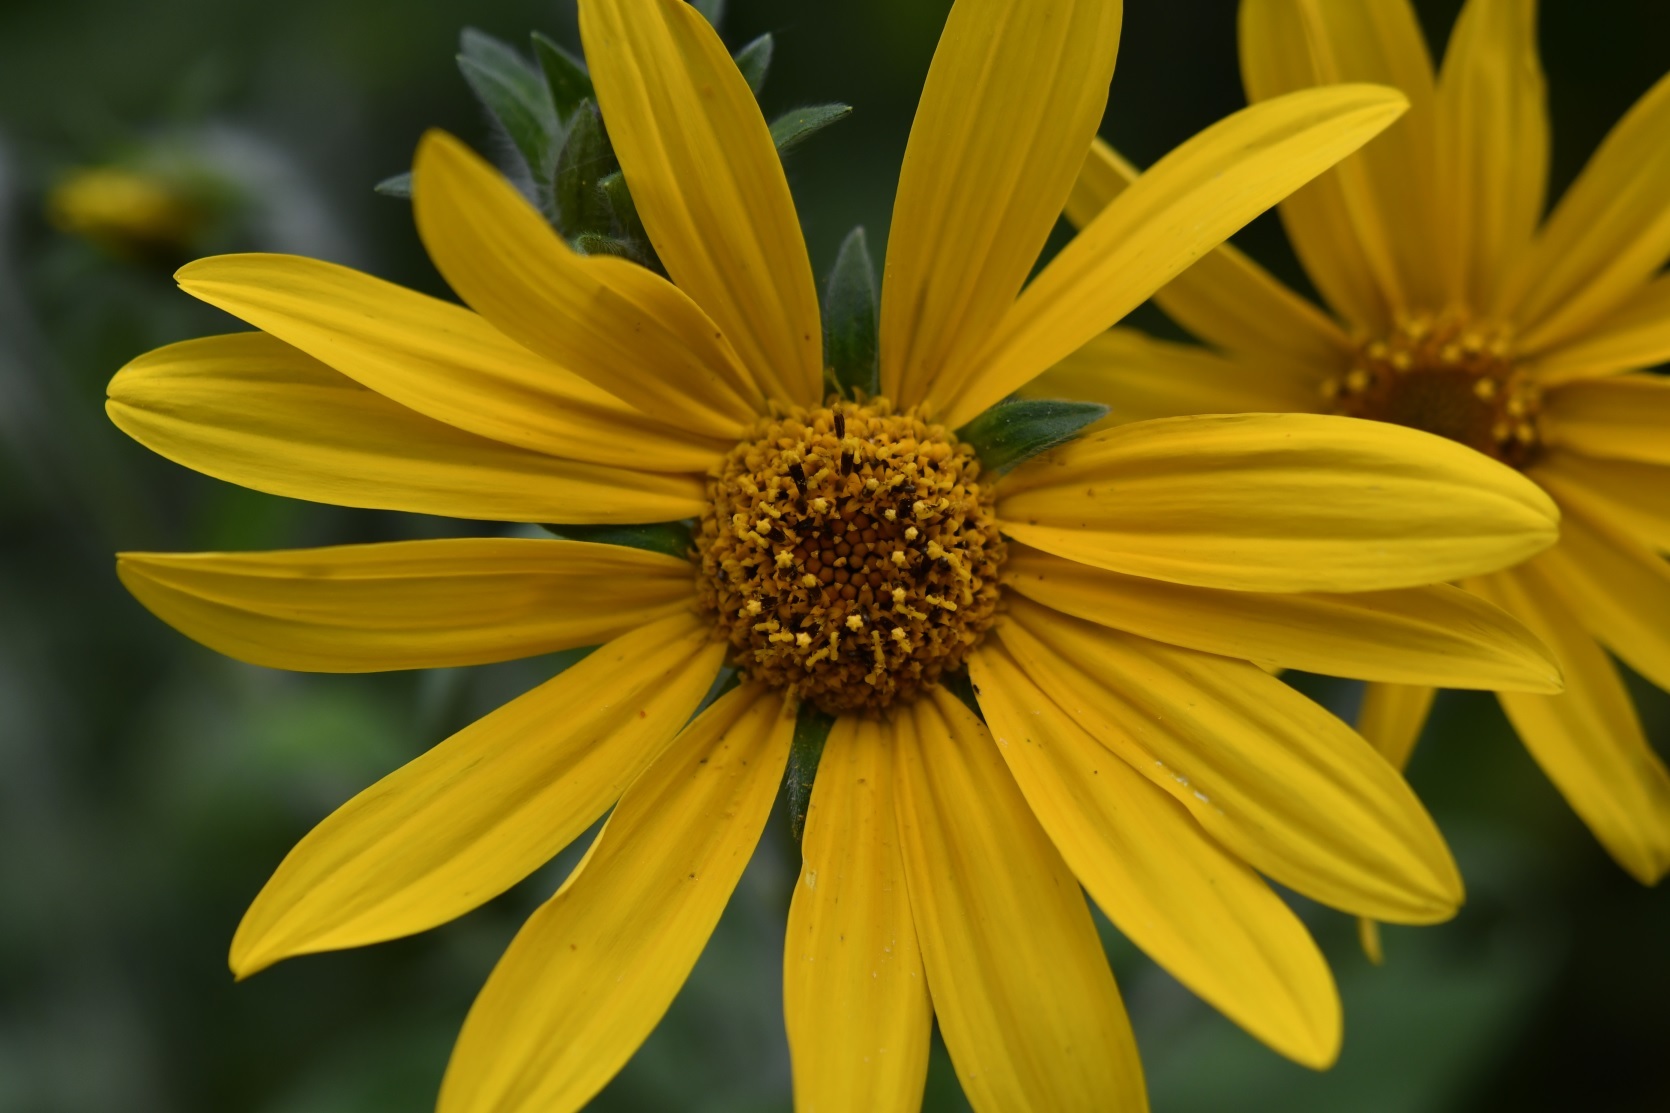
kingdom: Plantae
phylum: Tracheophyta
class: Magnoliopsida
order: Asterales
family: Asteraceae
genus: Tithonia
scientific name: Tithonia tubaeformis
